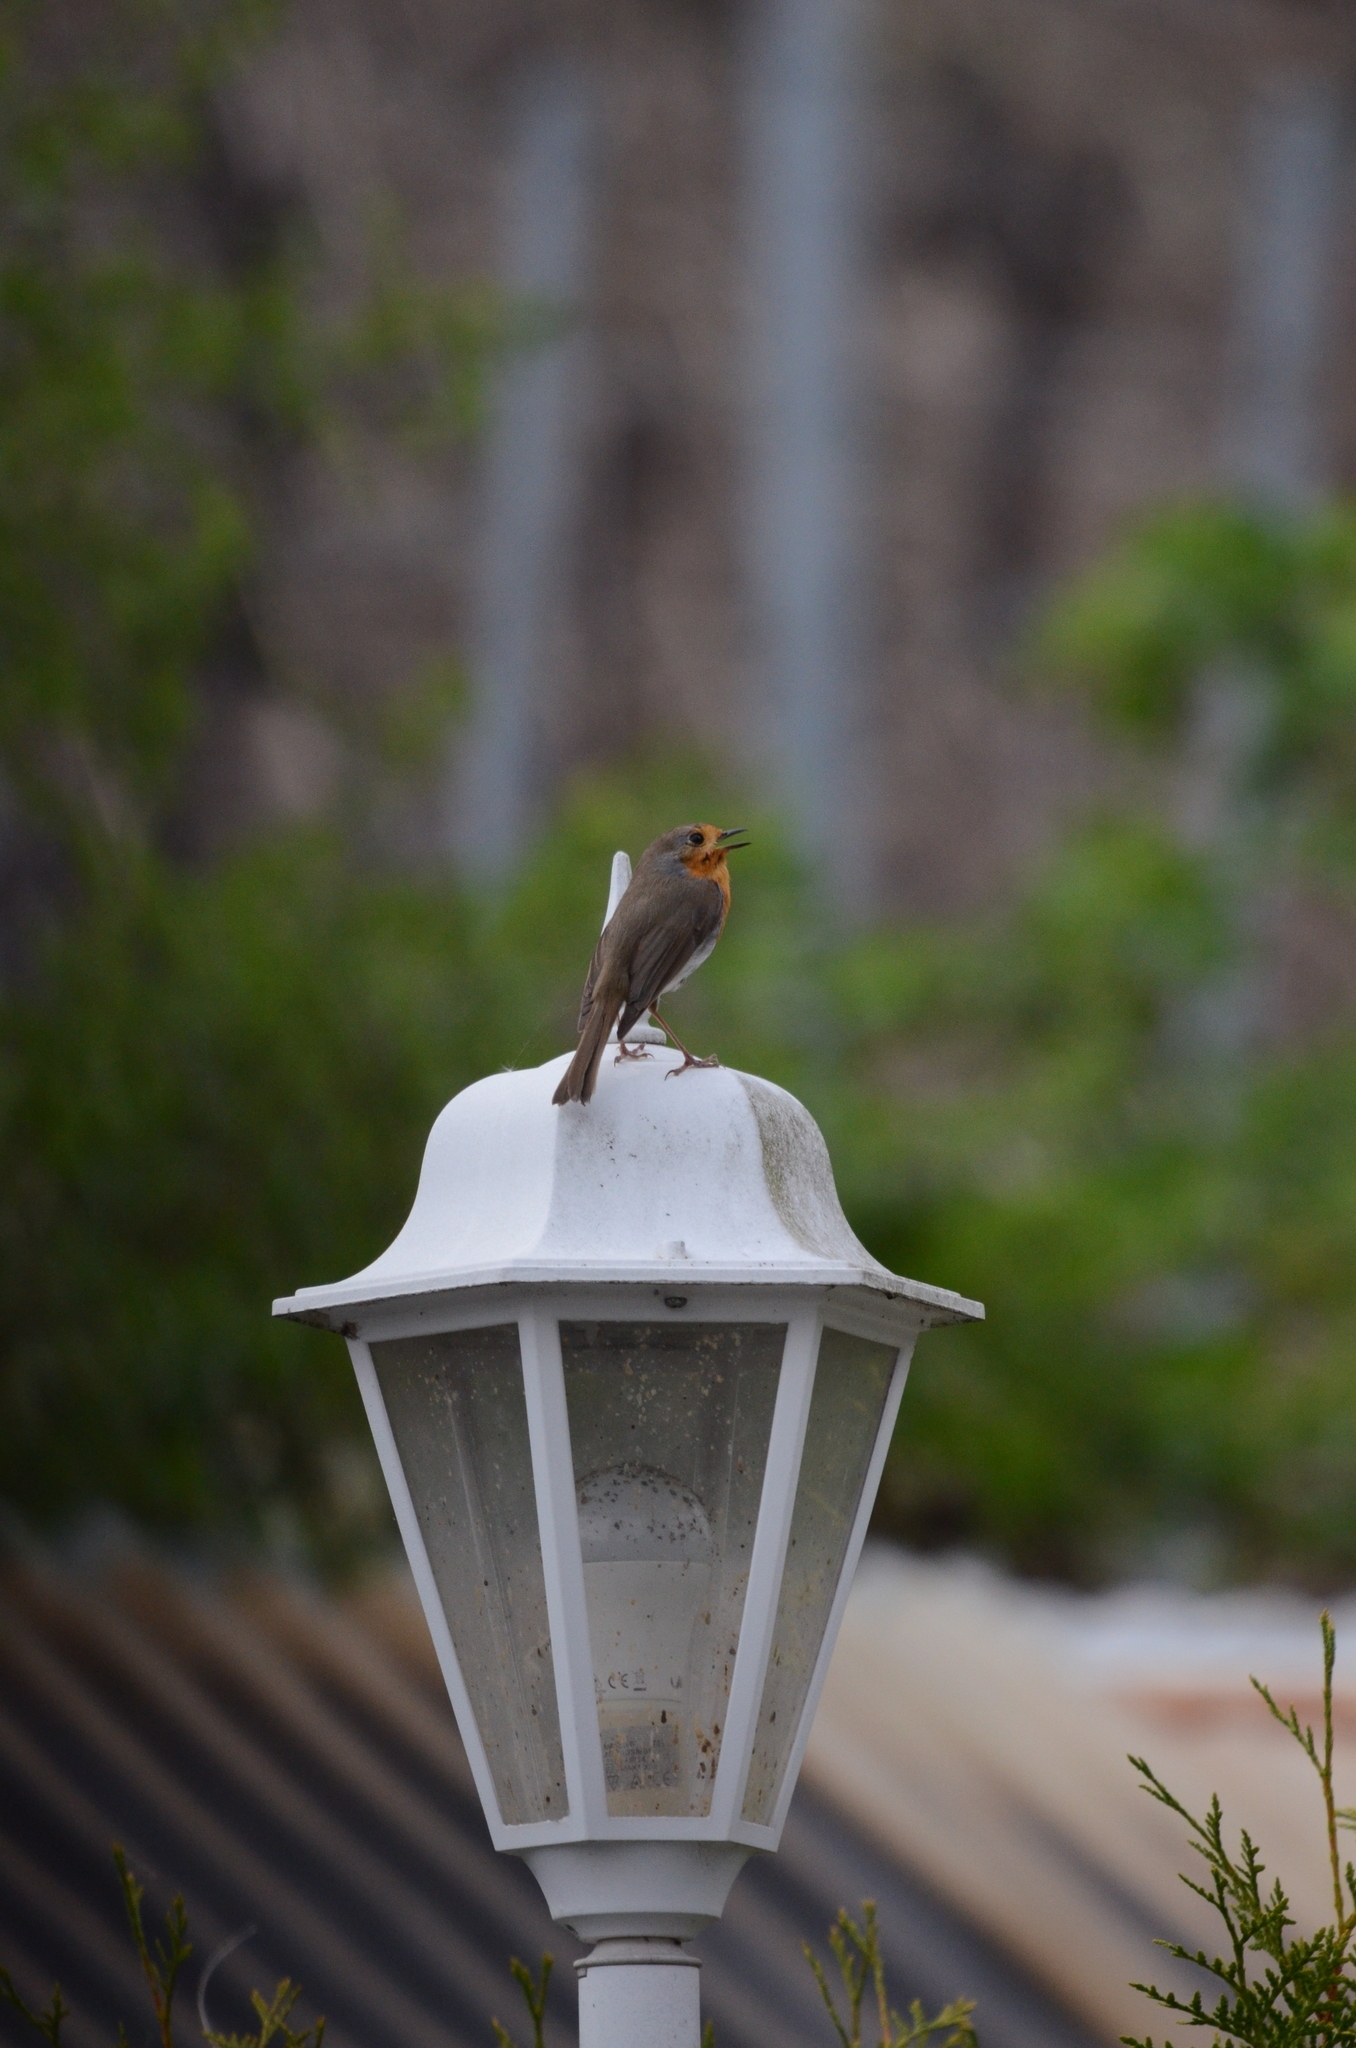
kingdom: Animalia
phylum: Chordata
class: Aves
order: Passeriformes
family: Muscicapidae
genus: Erithacus
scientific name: Erithacus rubecula
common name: European robin
